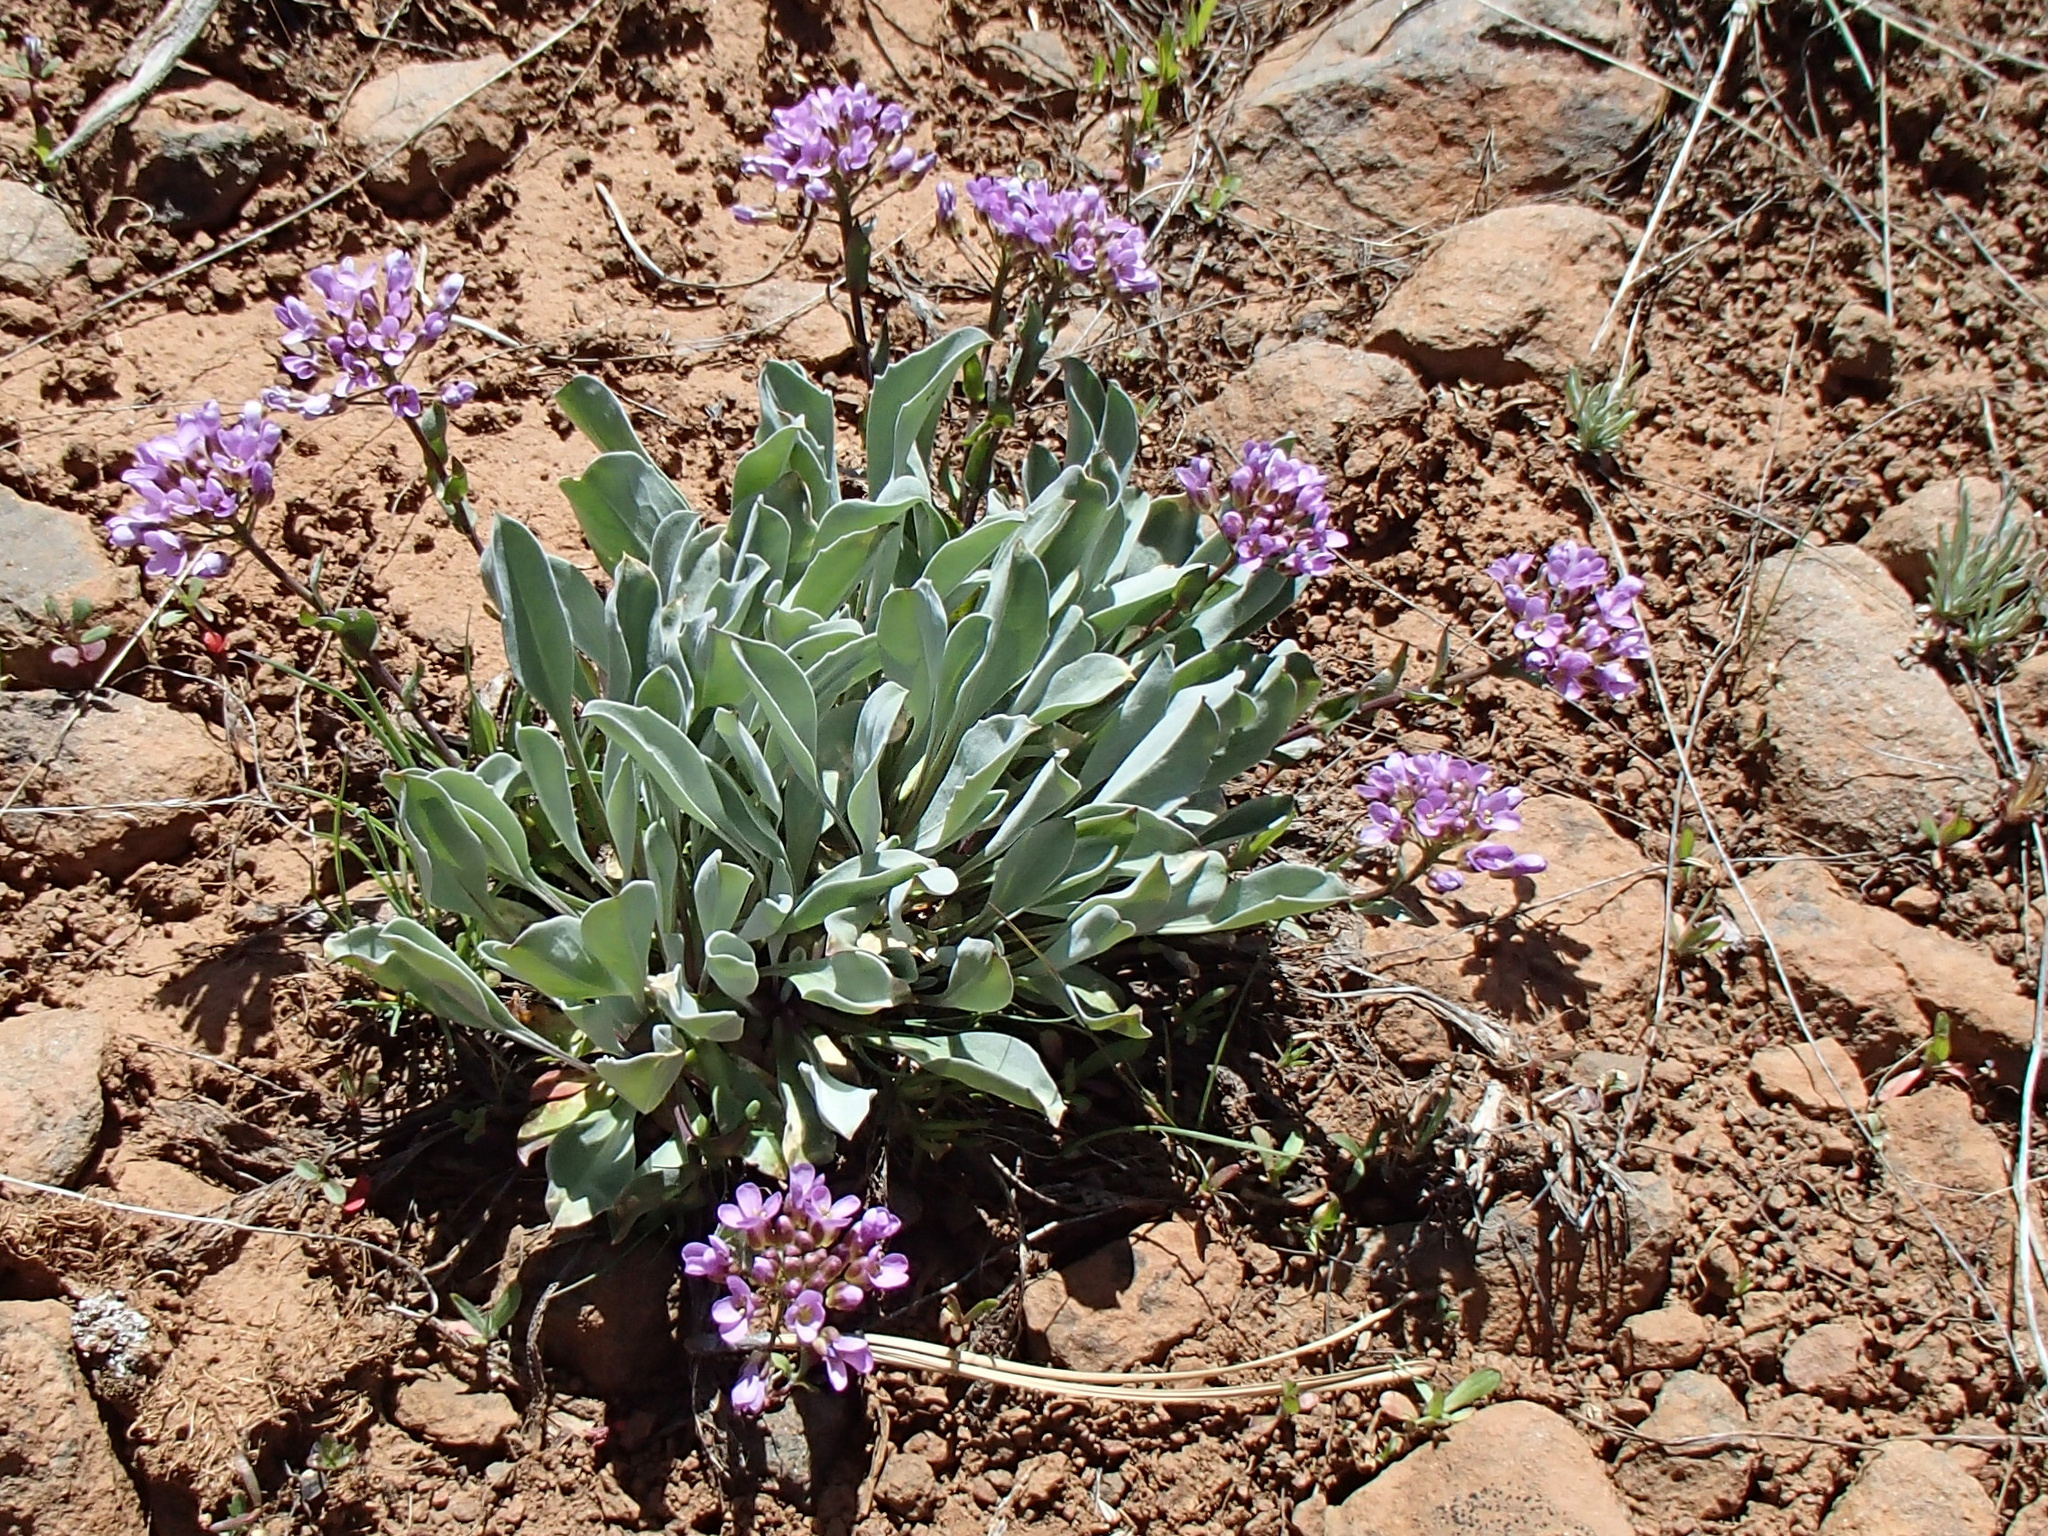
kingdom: Plantae
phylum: Tracheophyta
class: Magnoliopsida
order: Brassicales
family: Brassicaceae
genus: Phoenicaulis
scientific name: Phoenicaulis cheiranthoides
